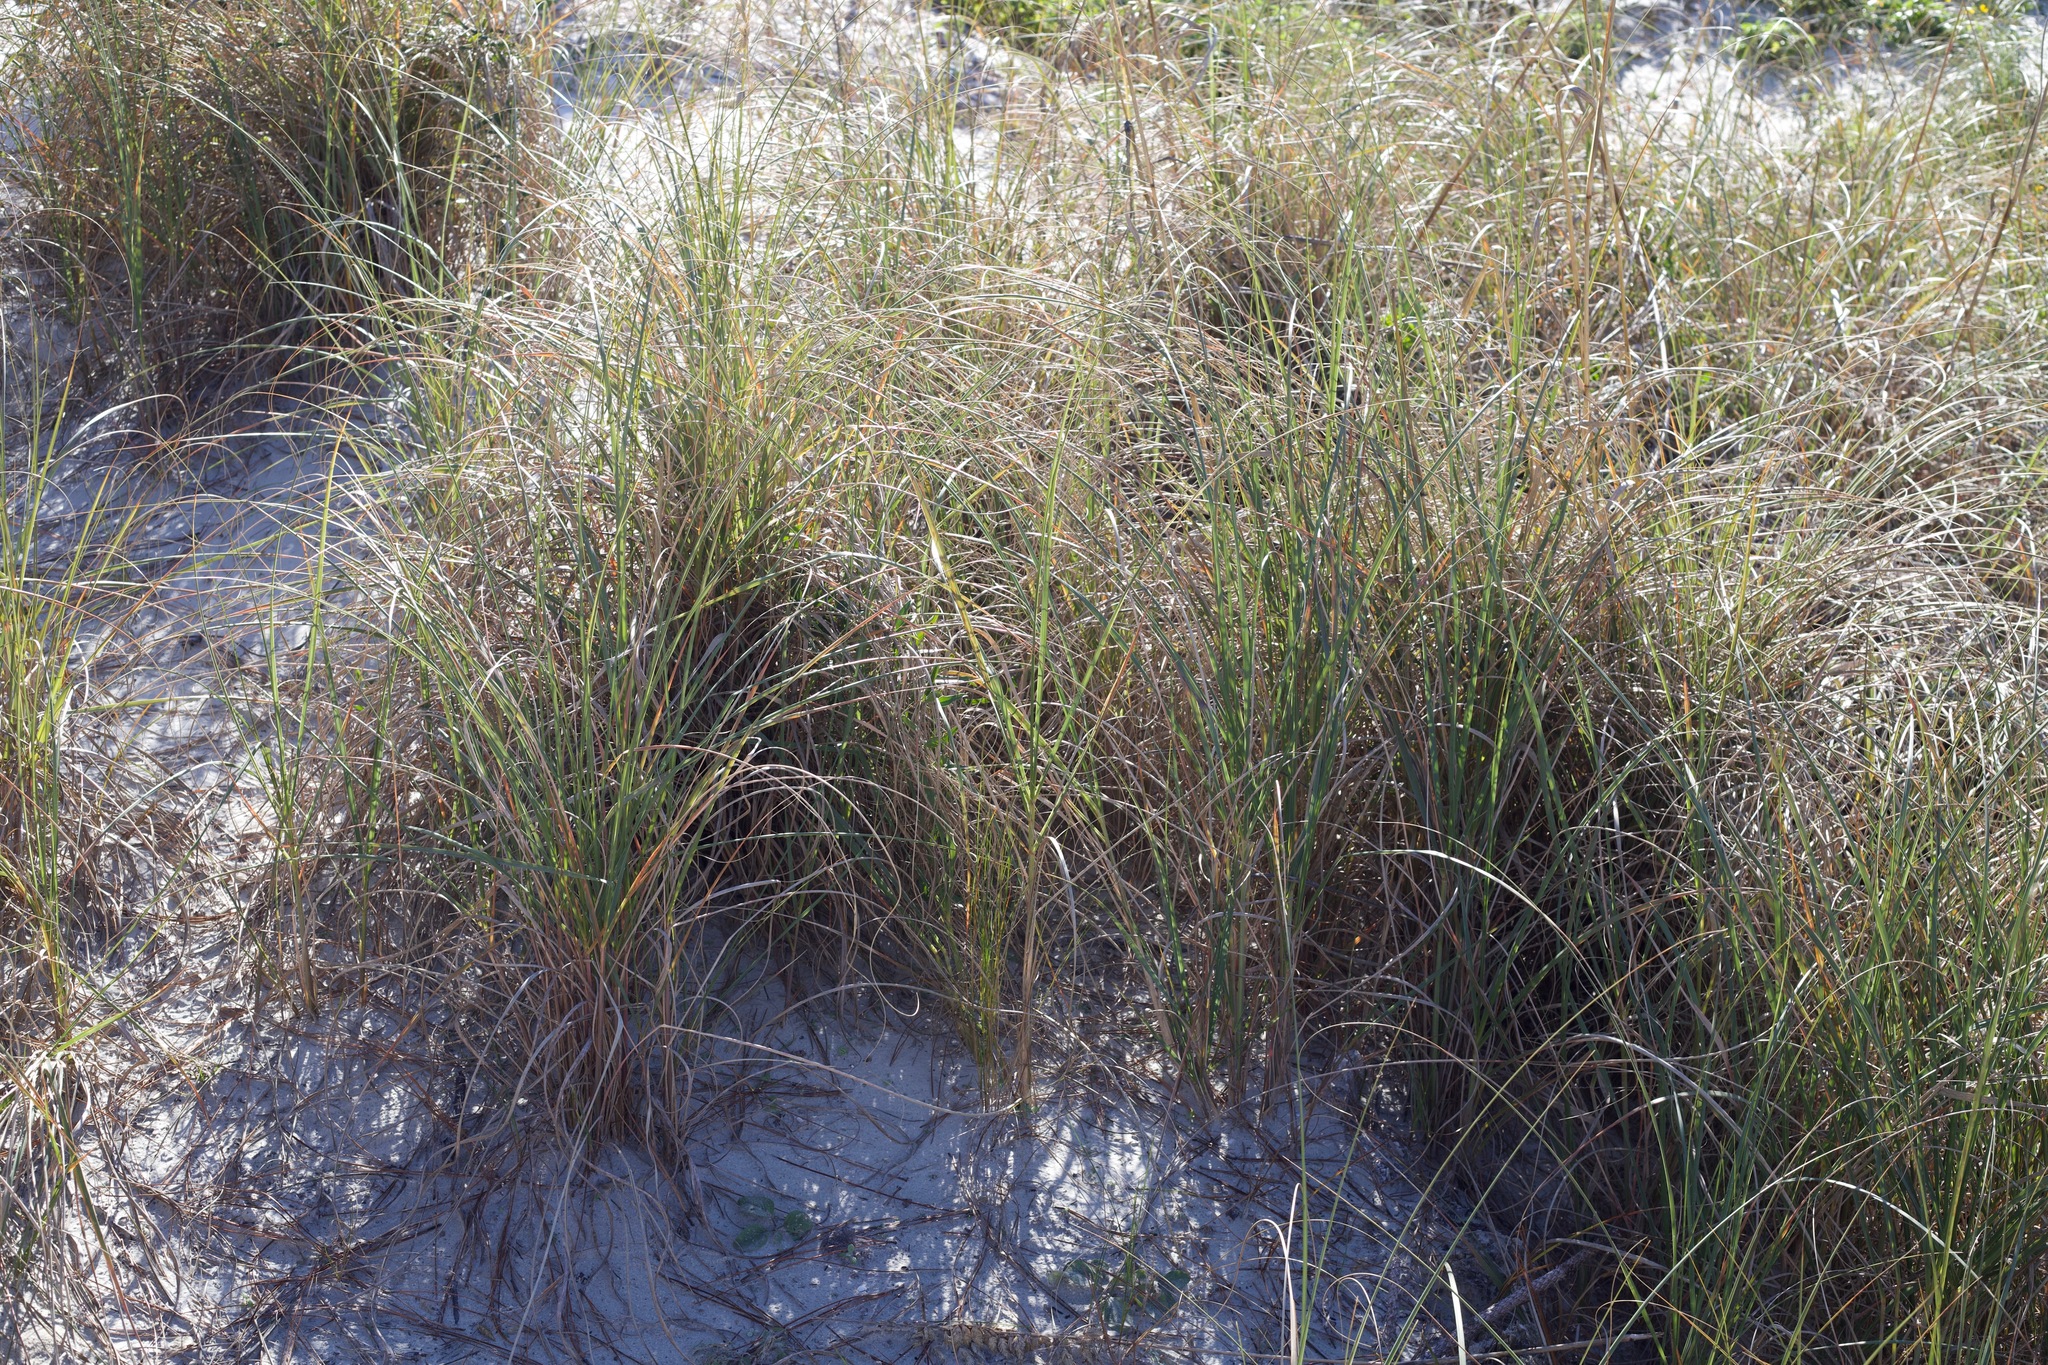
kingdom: Plantae
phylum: Tracheophyta
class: Liliopsida
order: Poales
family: Poaceae
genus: Sporobolus
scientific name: Sporobolus pumilus
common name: Highwater grass
